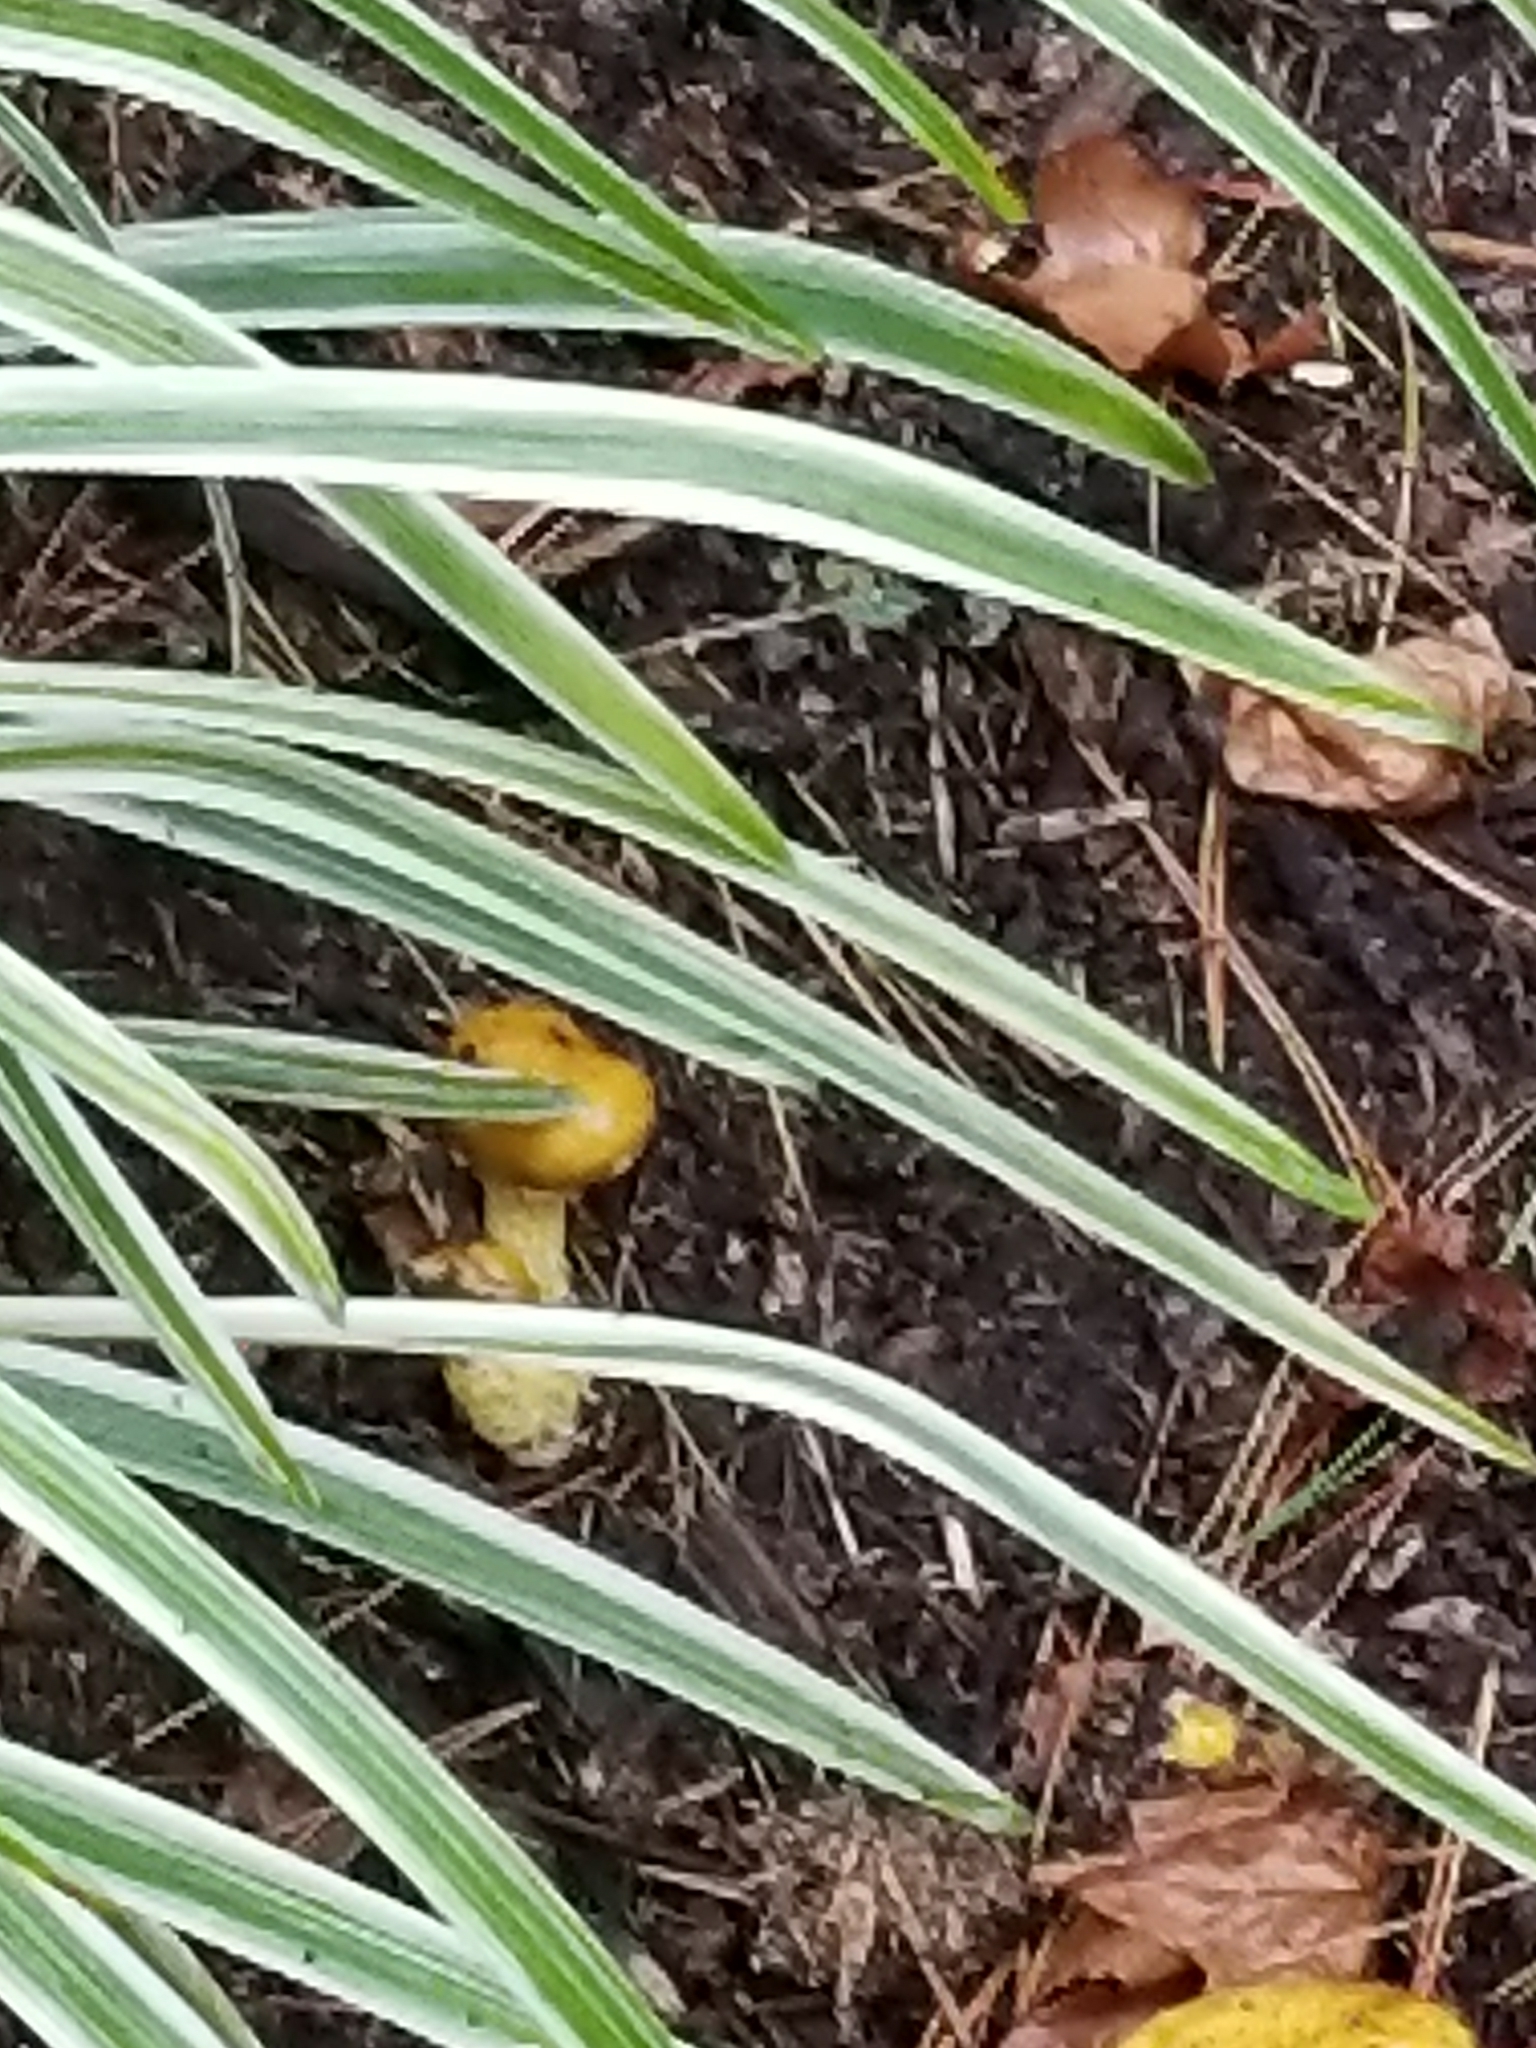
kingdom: Fungi
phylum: Basidiomycota
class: Agaricomycetes
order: Boletales
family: Suillaceae
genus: Suillus
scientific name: Suillus americanus
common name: Chicken fat mushroom
